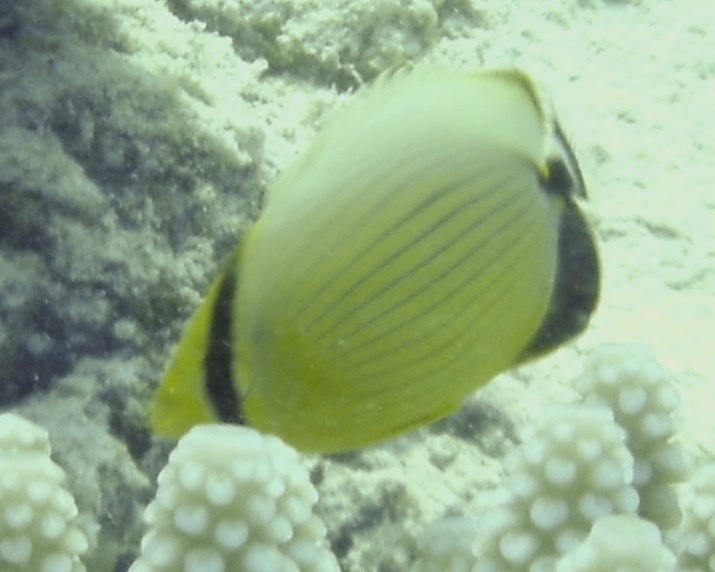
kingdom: Animalia
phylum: Chordata
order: Perciformes
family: Chaetodontidae
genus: Chaetodon
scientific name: Chaetodon austriacus
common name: Exquisite butterflyfish
